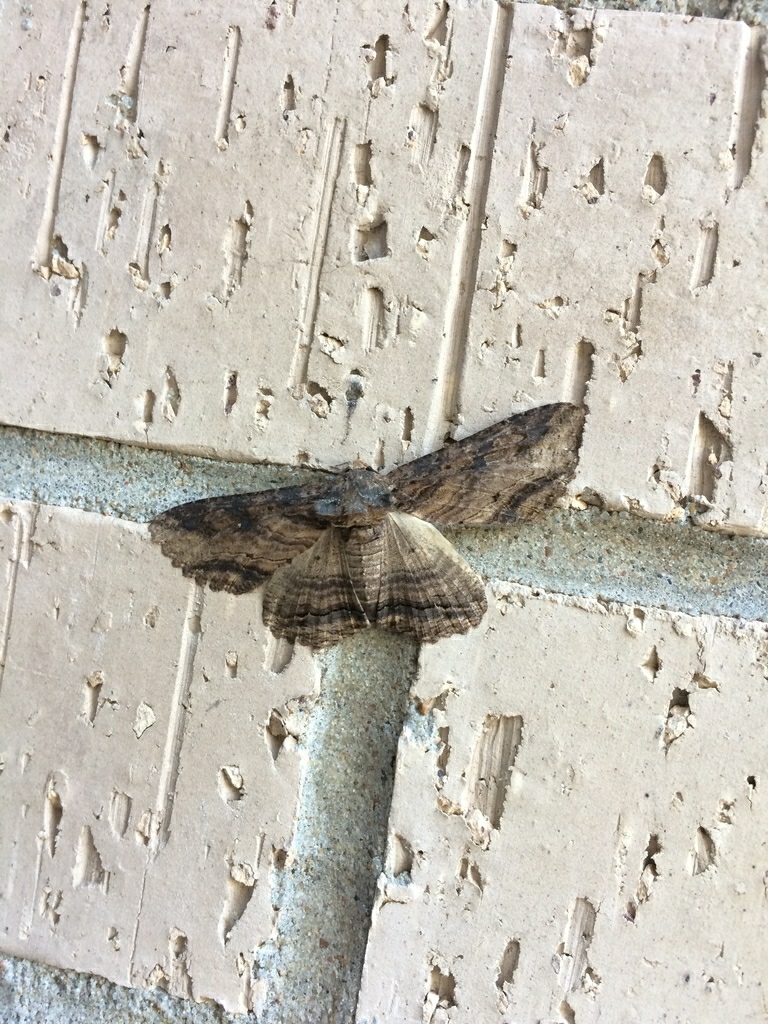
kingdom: Animalia
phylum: Arthropoda
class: Insecta
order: Lepidoptera
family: Erebidae
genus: Zale
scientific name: Zale lunata
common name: Lunate zale moth
